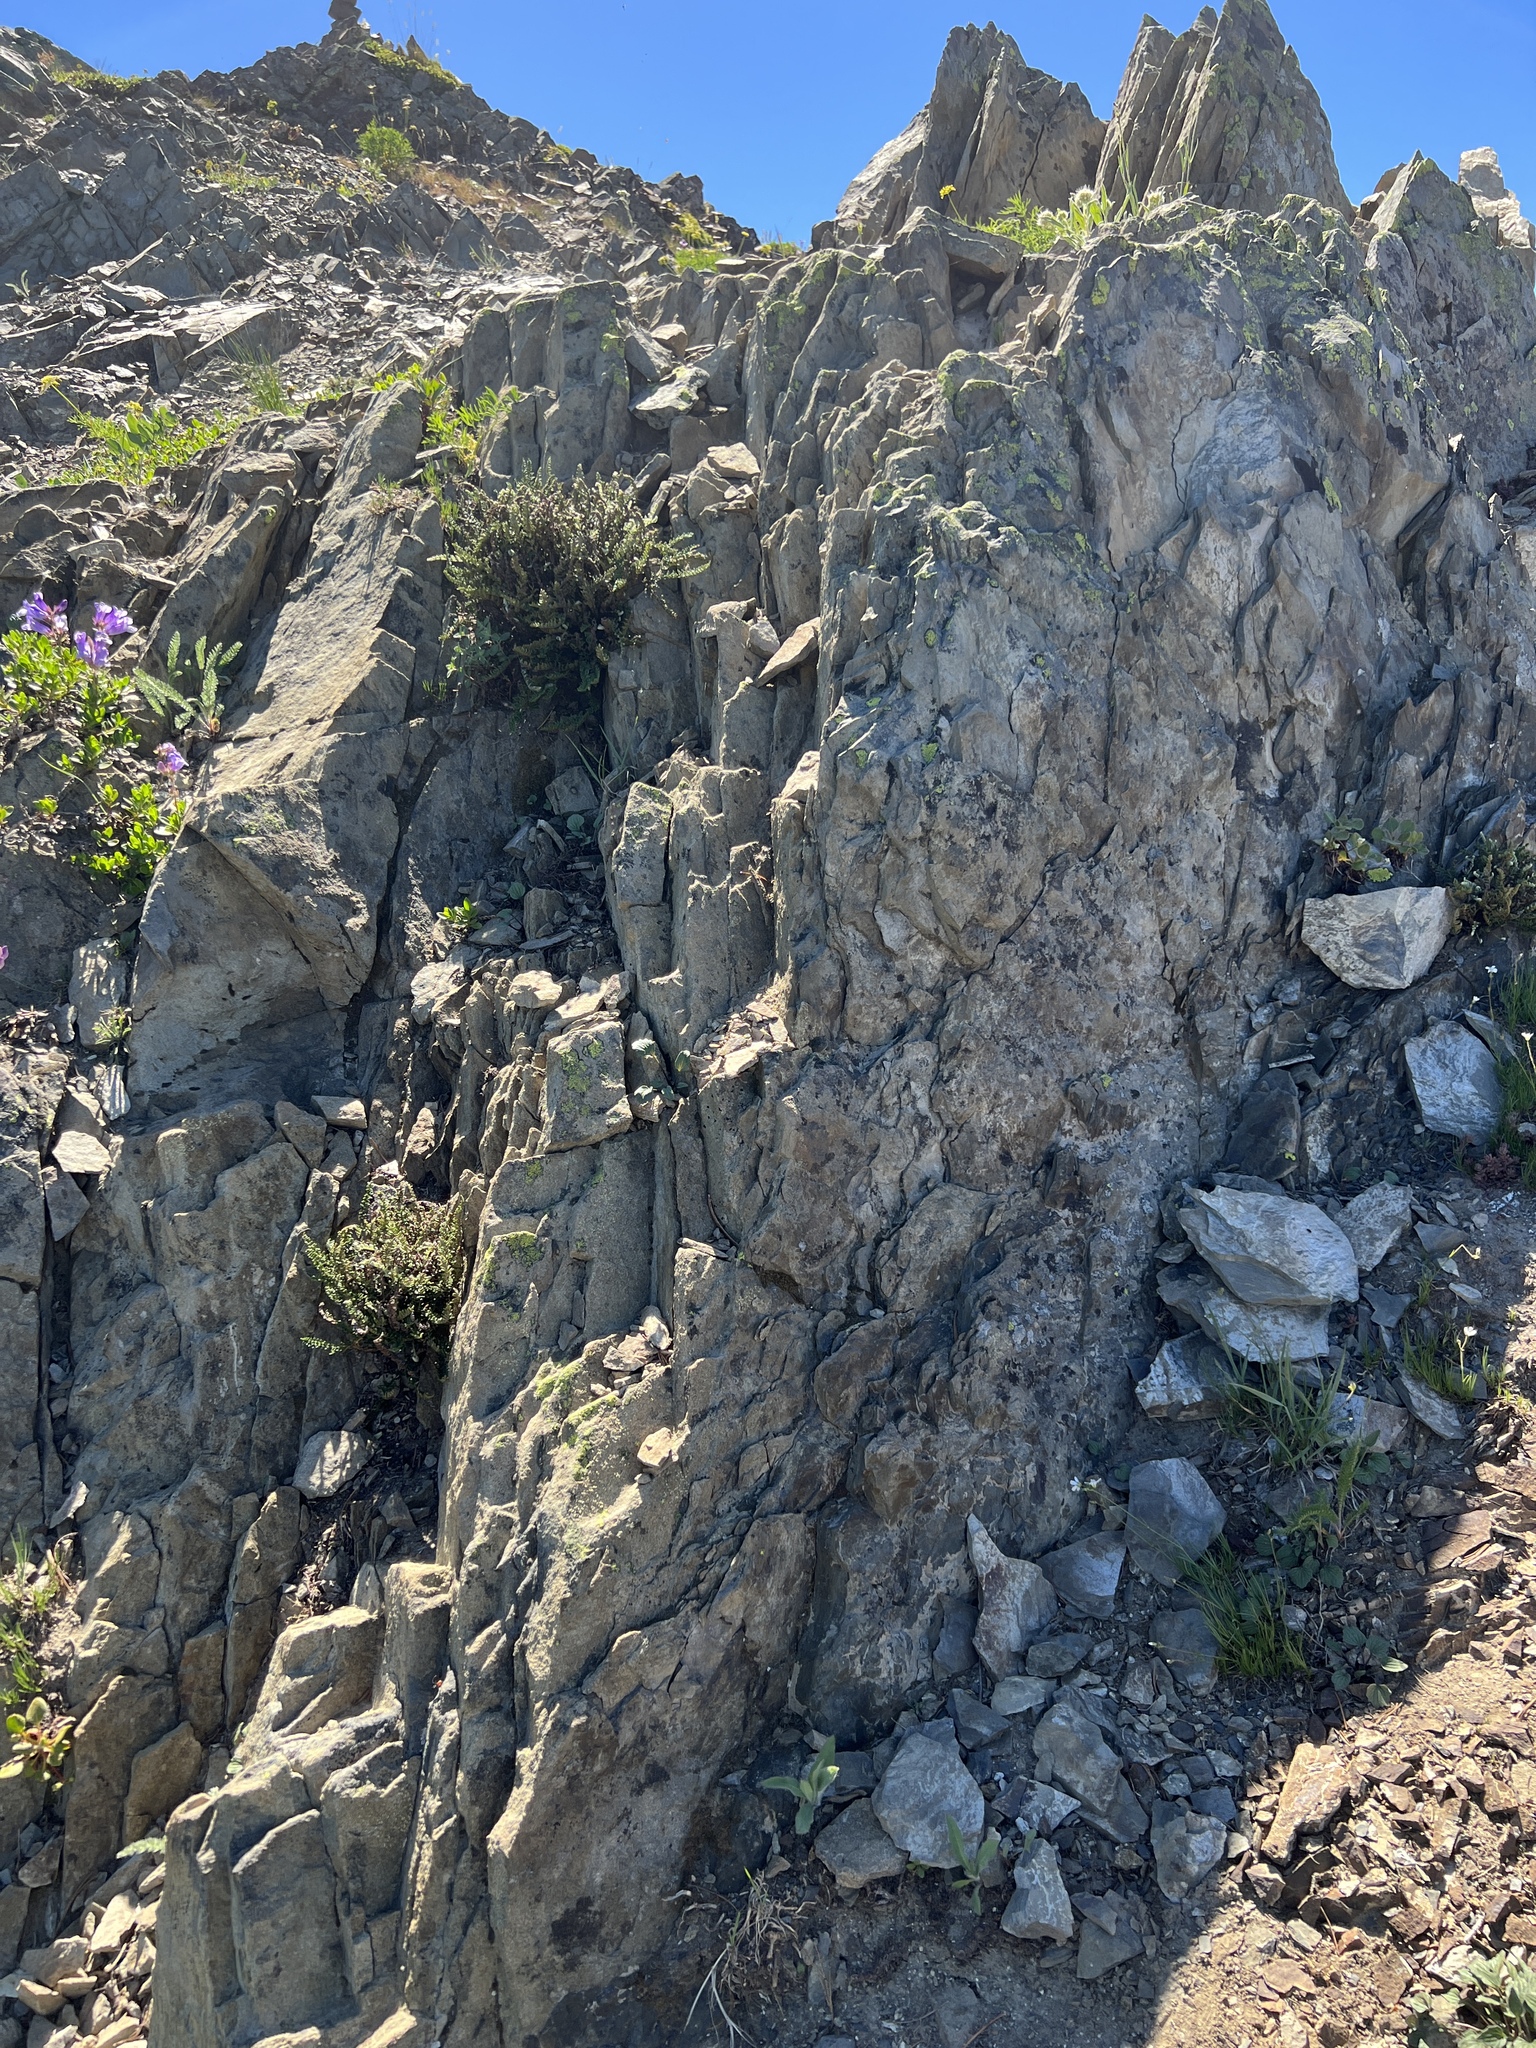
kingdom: Plantae
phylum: Tracheophyta
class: Polypodiopsida
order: Polypodiales
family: Pteridaceae
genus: Myriopteris
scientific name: Myriopteris gracillima
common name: Lace fern
